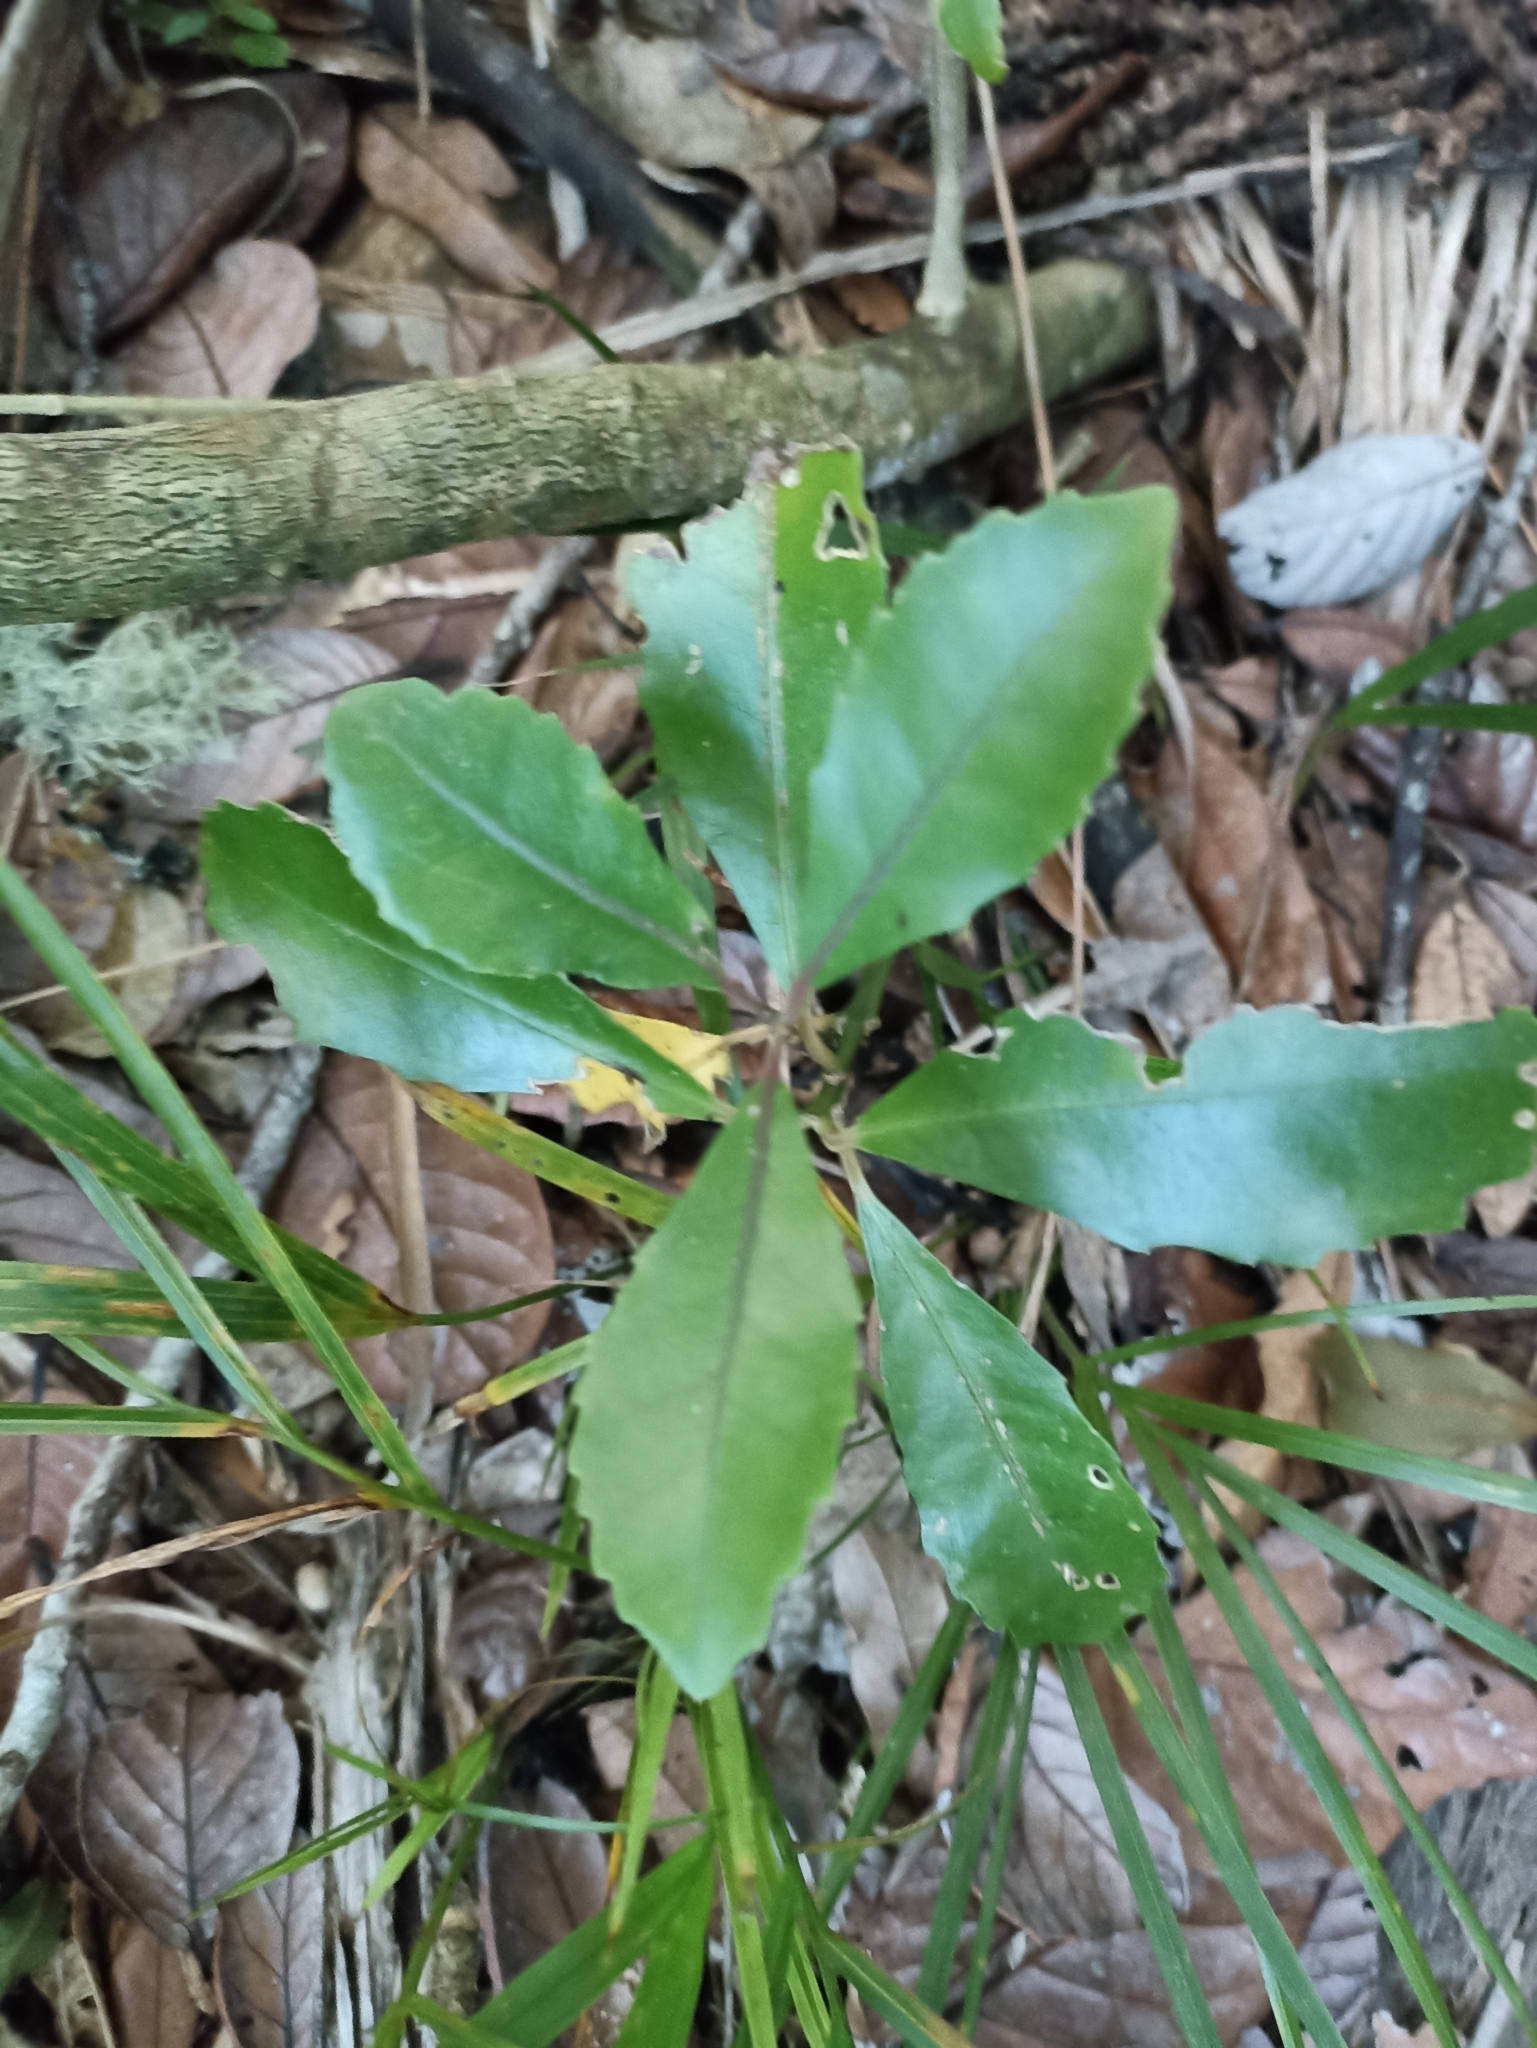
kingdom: Plantae
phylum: Tracheophyta
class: Magnoliopsida
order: Laurales
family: Monimiaceae
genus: Hedycarya
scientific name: Hedycarya arborea
